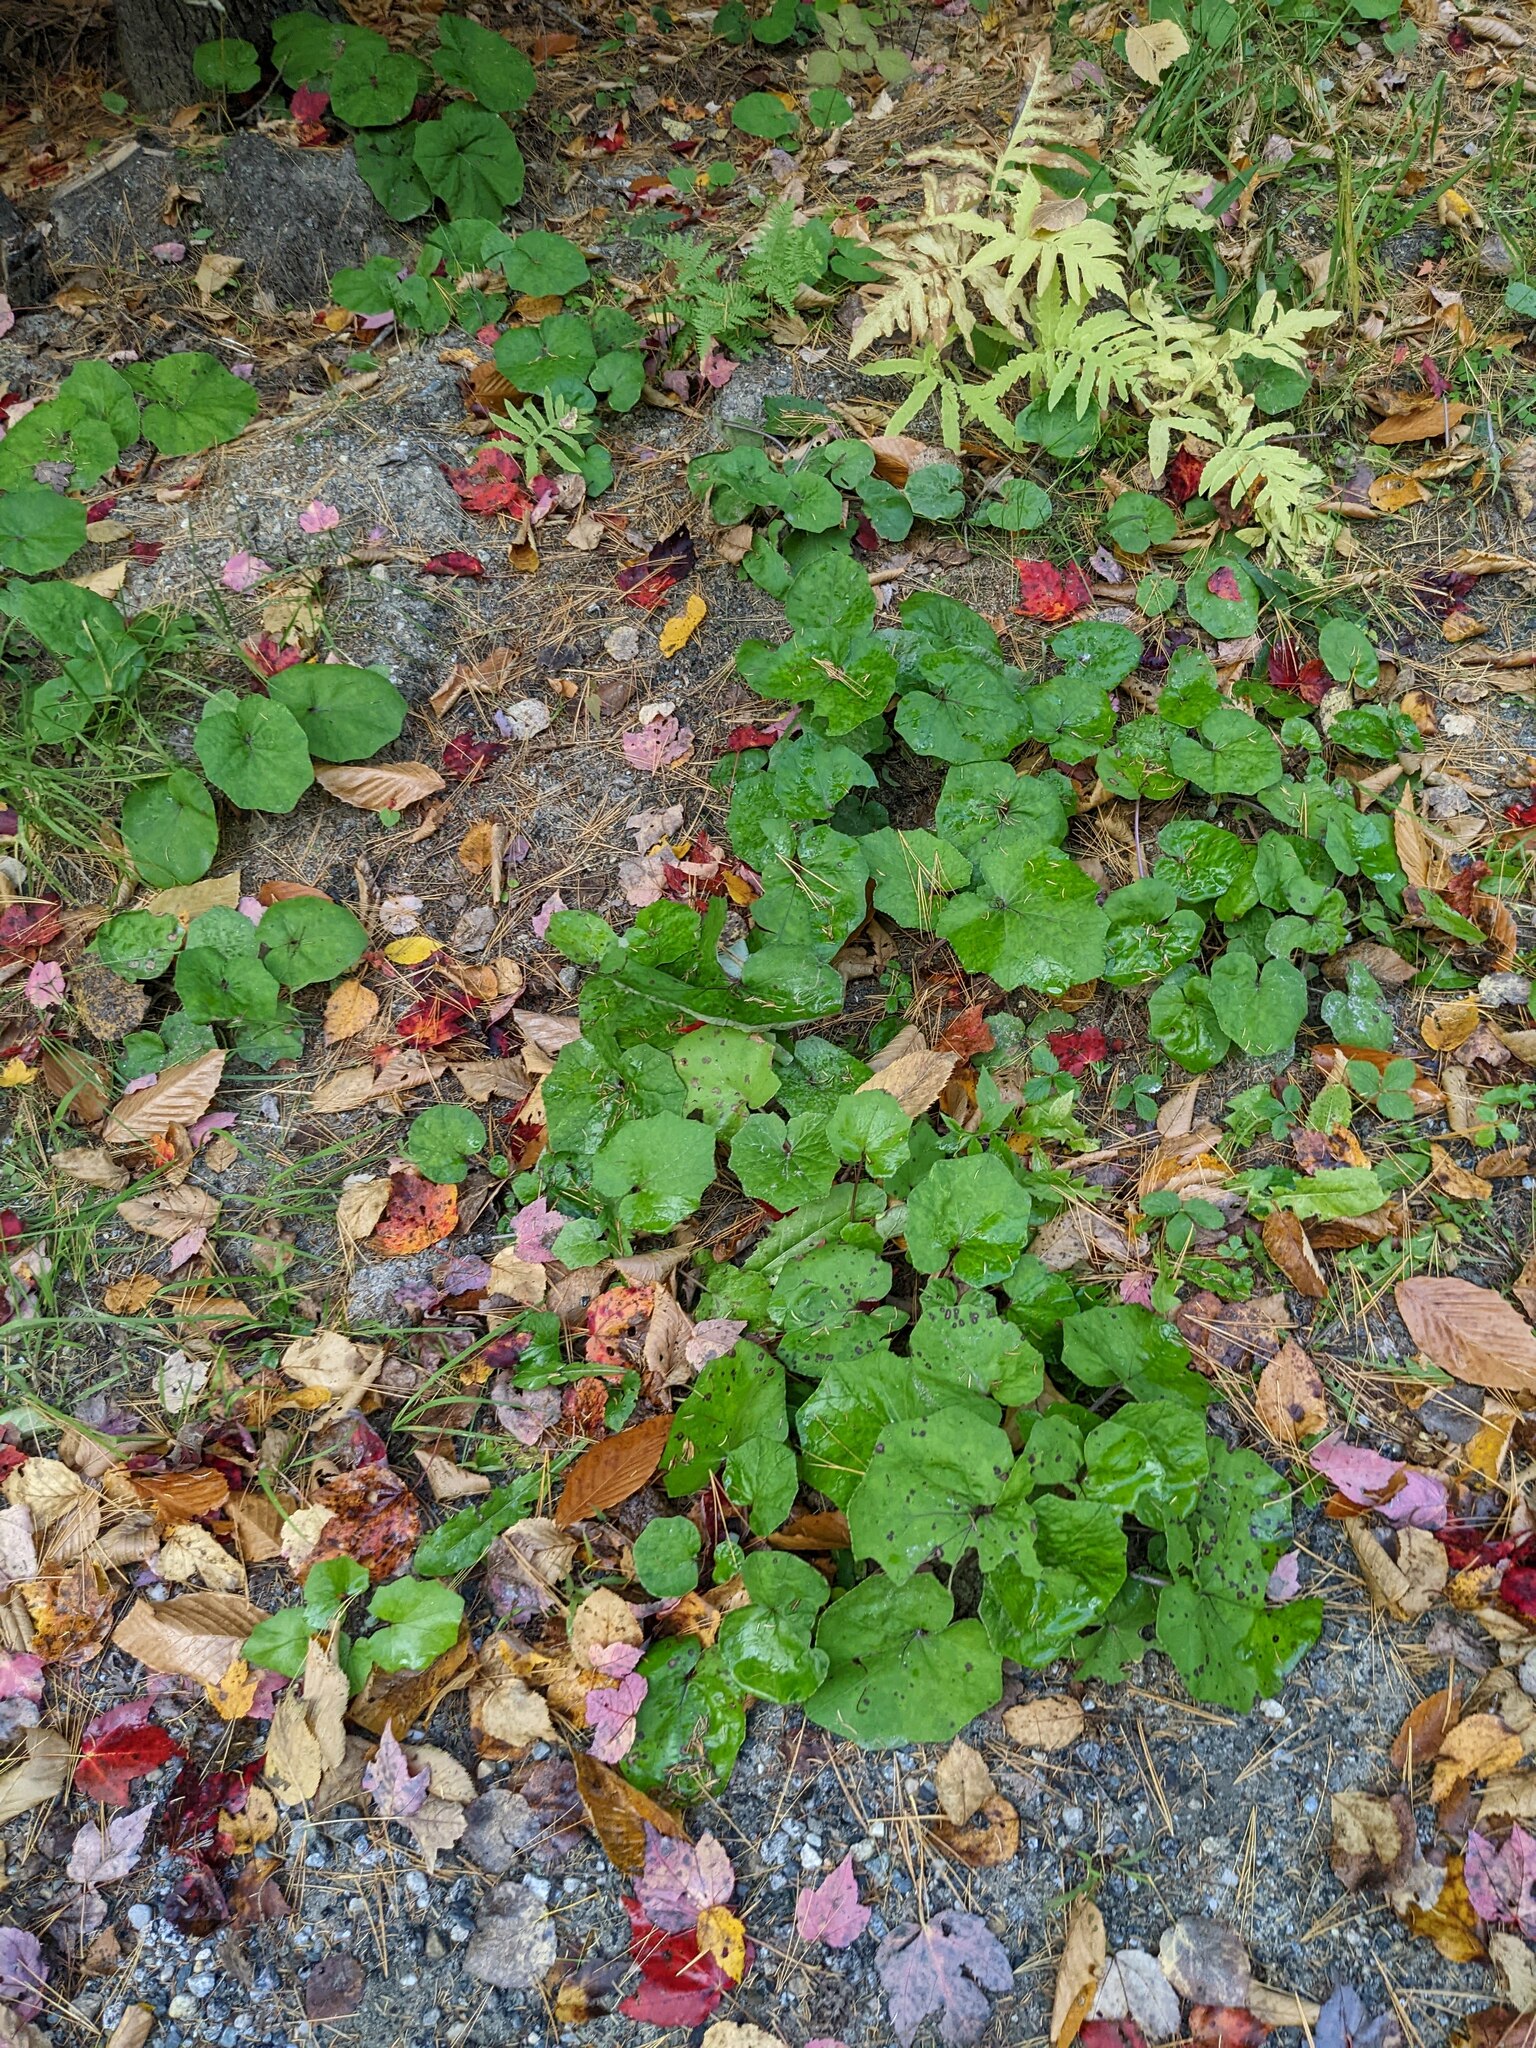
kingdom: Plantae
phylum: Tracheophyta
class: Magnoliopsida
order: Asterales
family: Asteraceae
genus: Tussilago
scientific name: Tussilago farfara
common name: Coltsfoot
